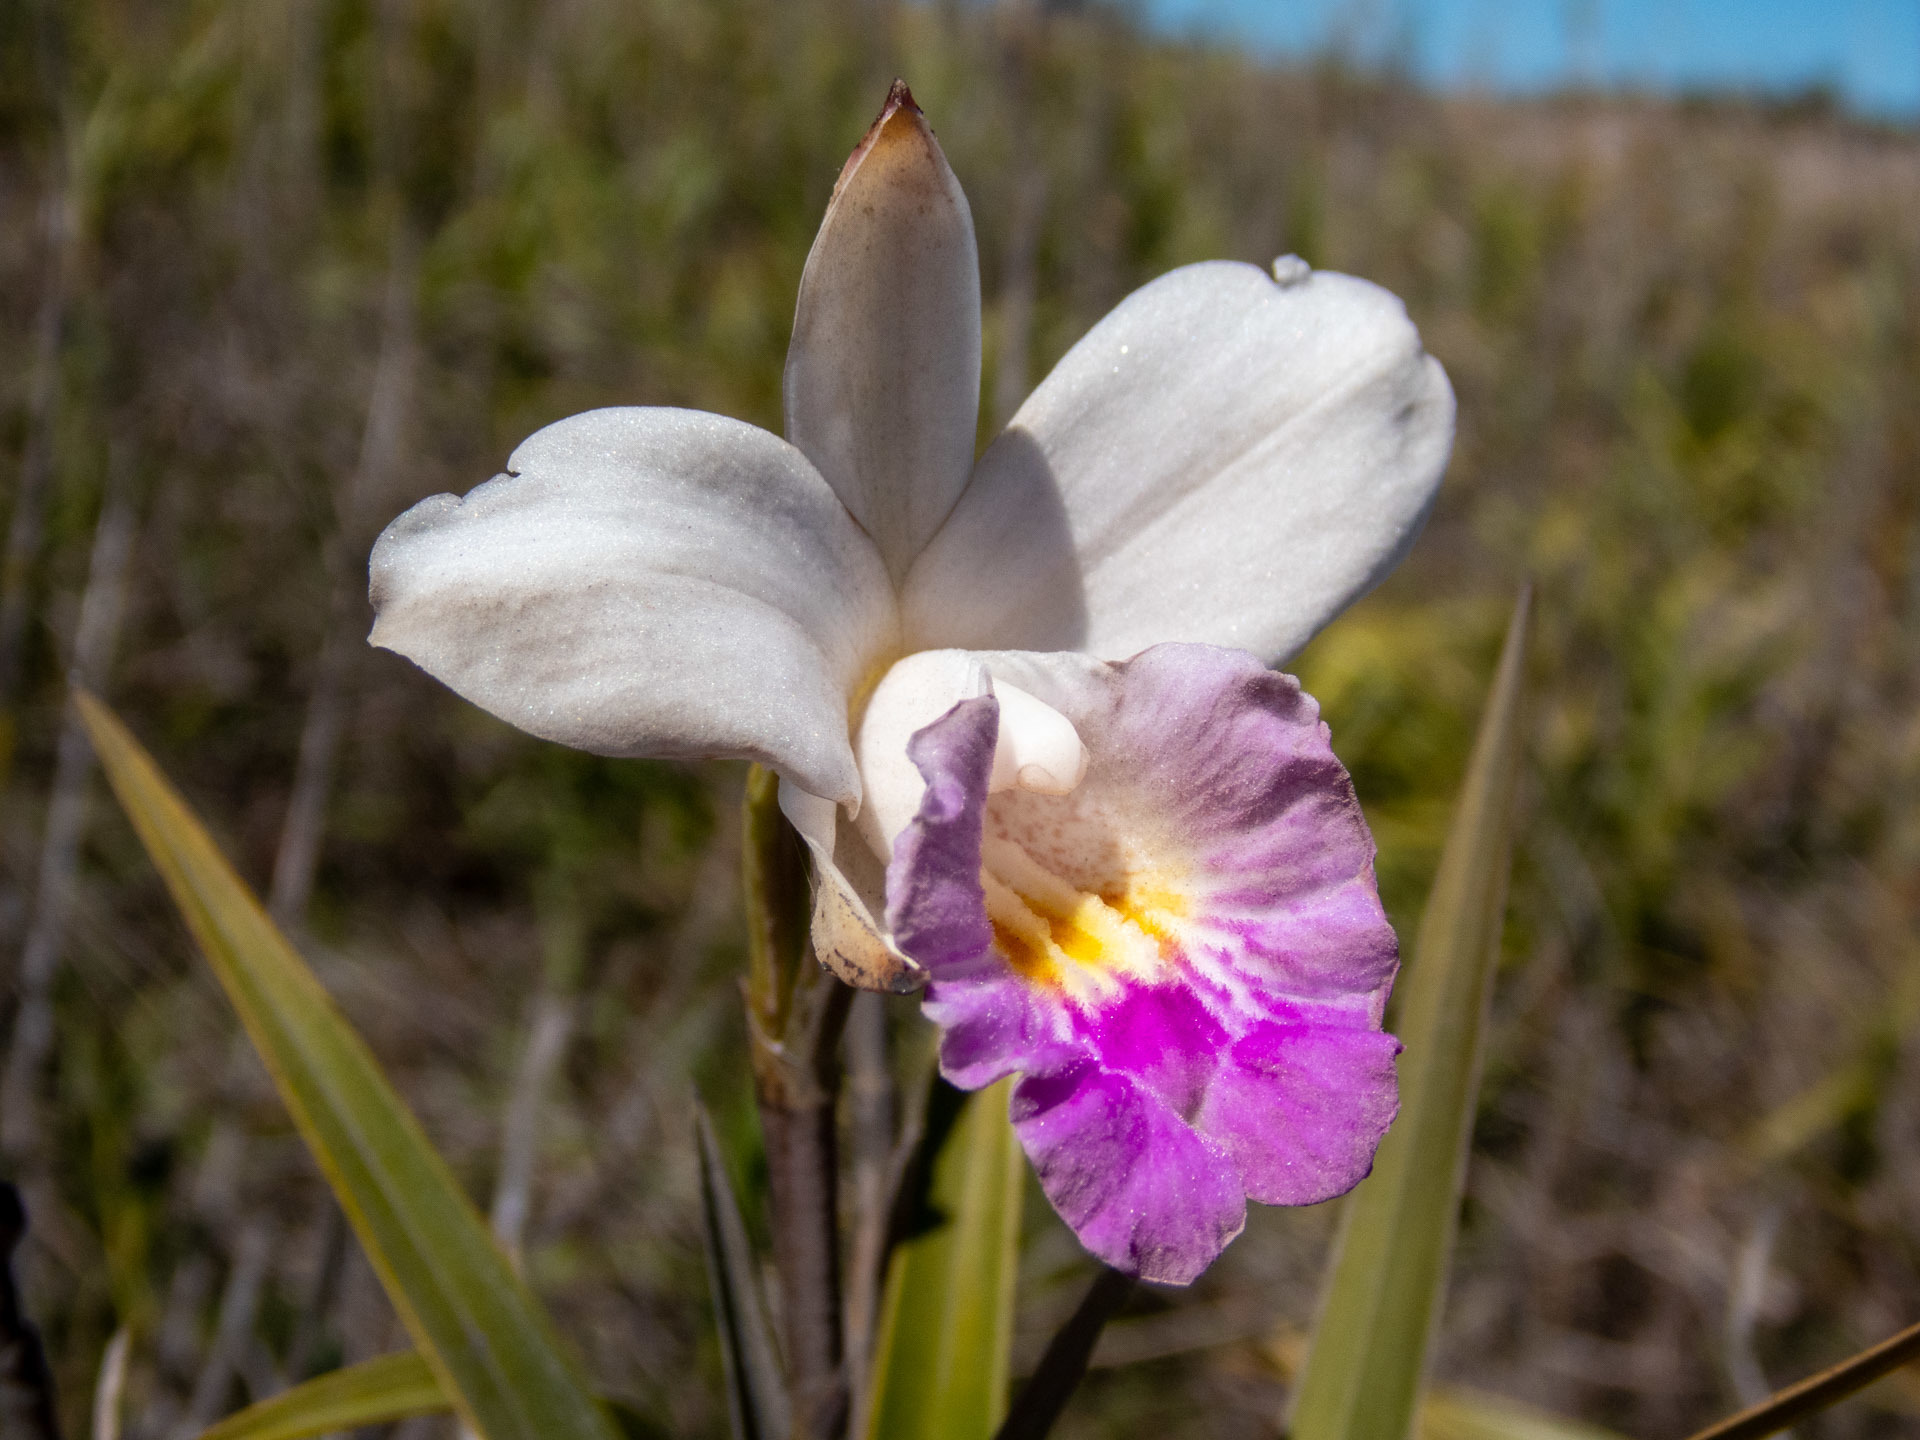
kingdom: Plantae
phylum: Tracheophyta
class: Liliopsida
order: Asparagales
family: Orchidaceae
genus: Arundina
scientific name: Arundina graminifolia
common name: Bamboo orchid
